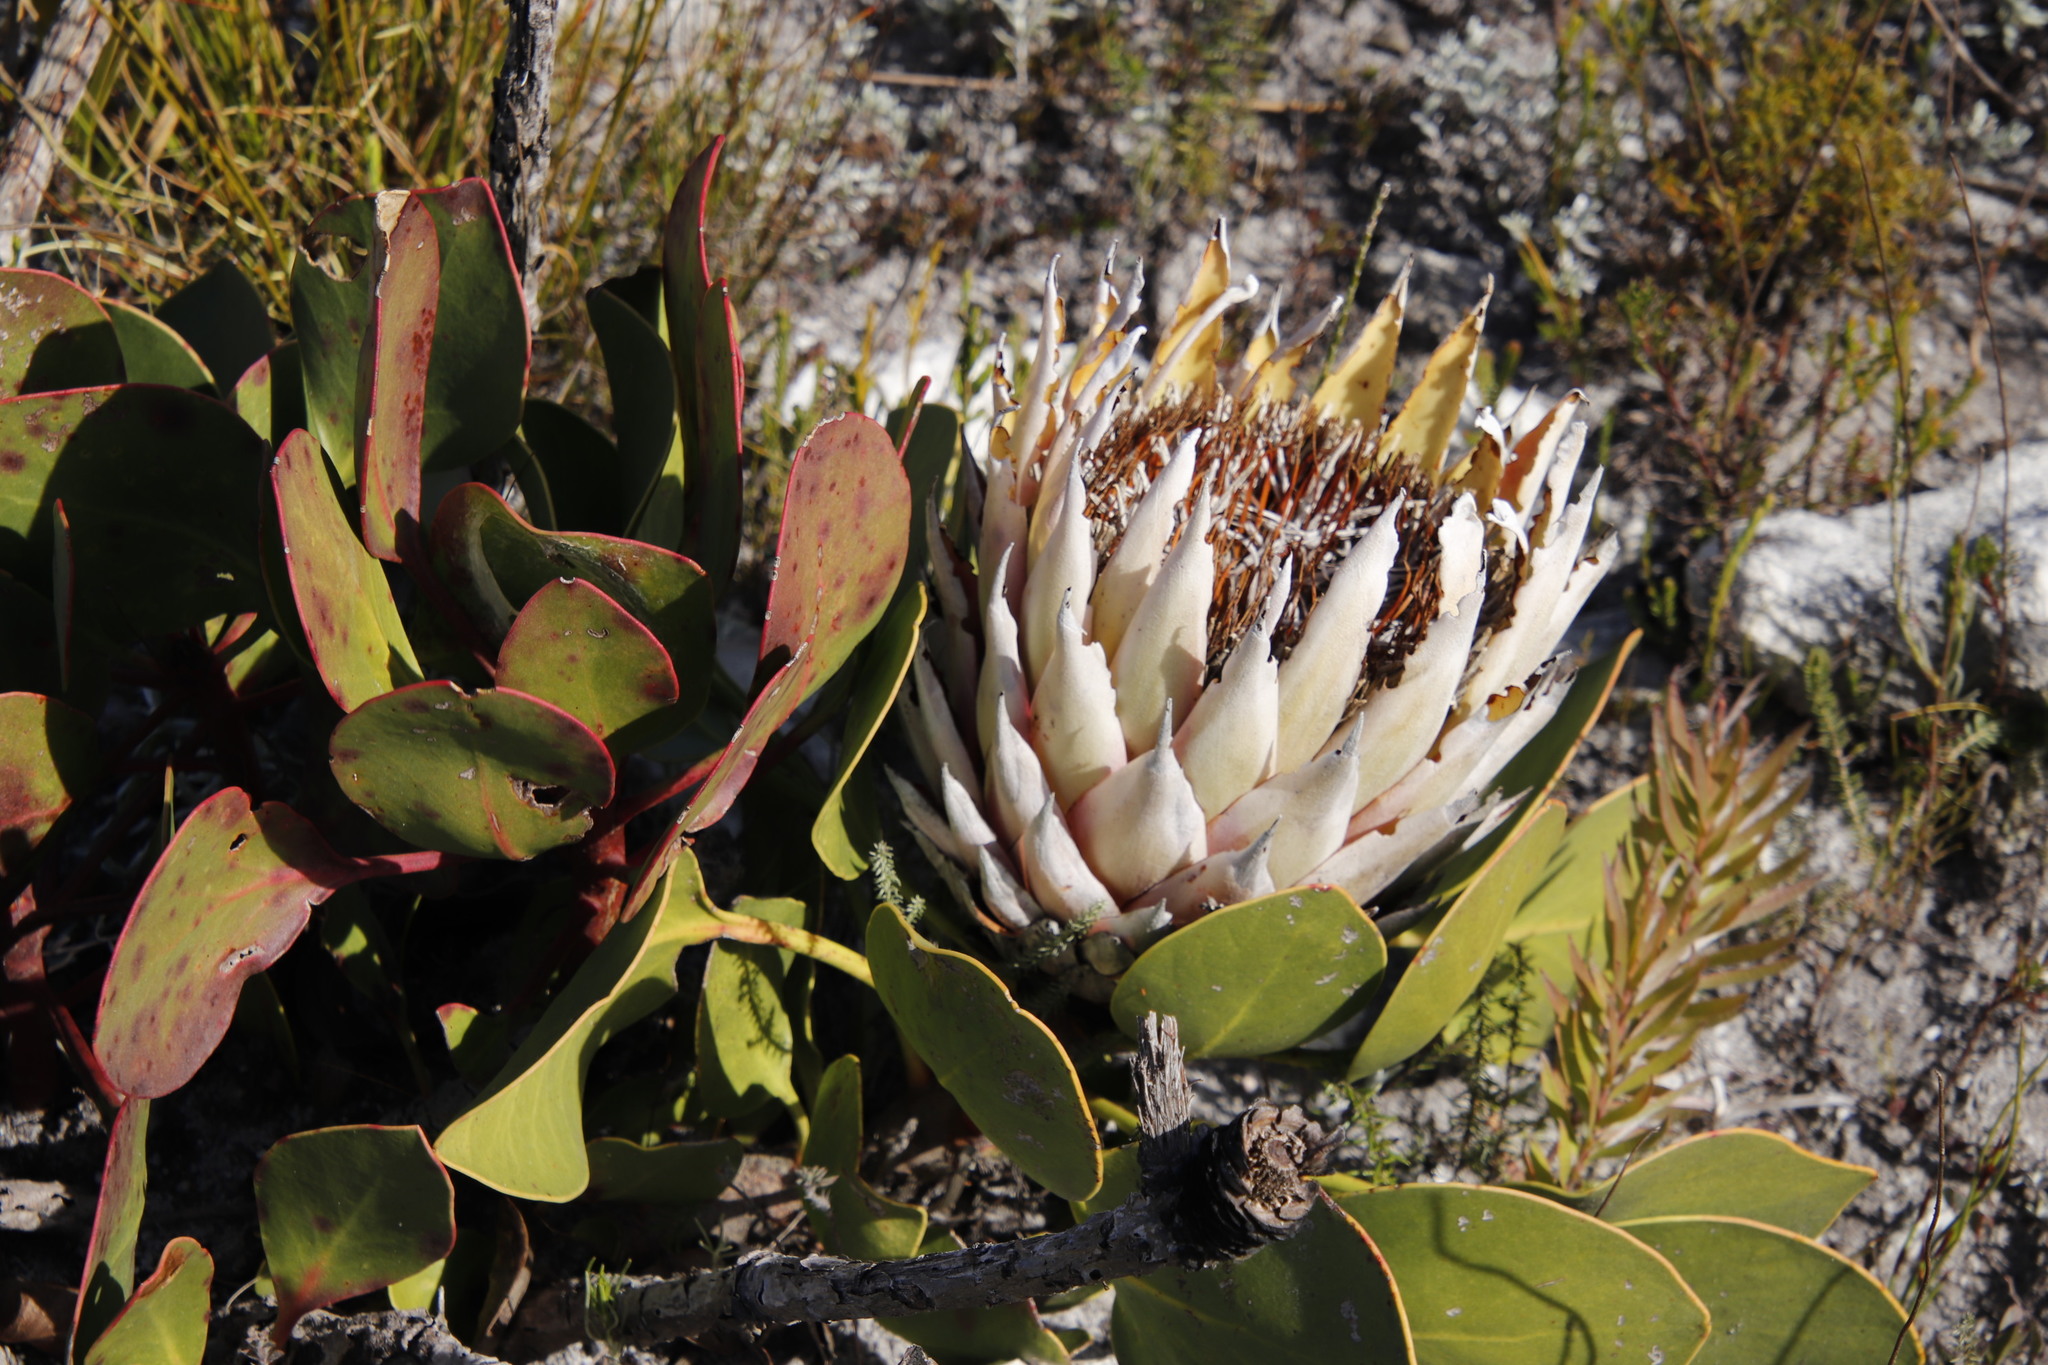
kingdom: Plantae
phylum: Tracheophyta
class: Magnoliopsida
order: Proteales
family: Proteaceae
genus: Protea
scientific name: Protea cynaroides
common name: King protea
